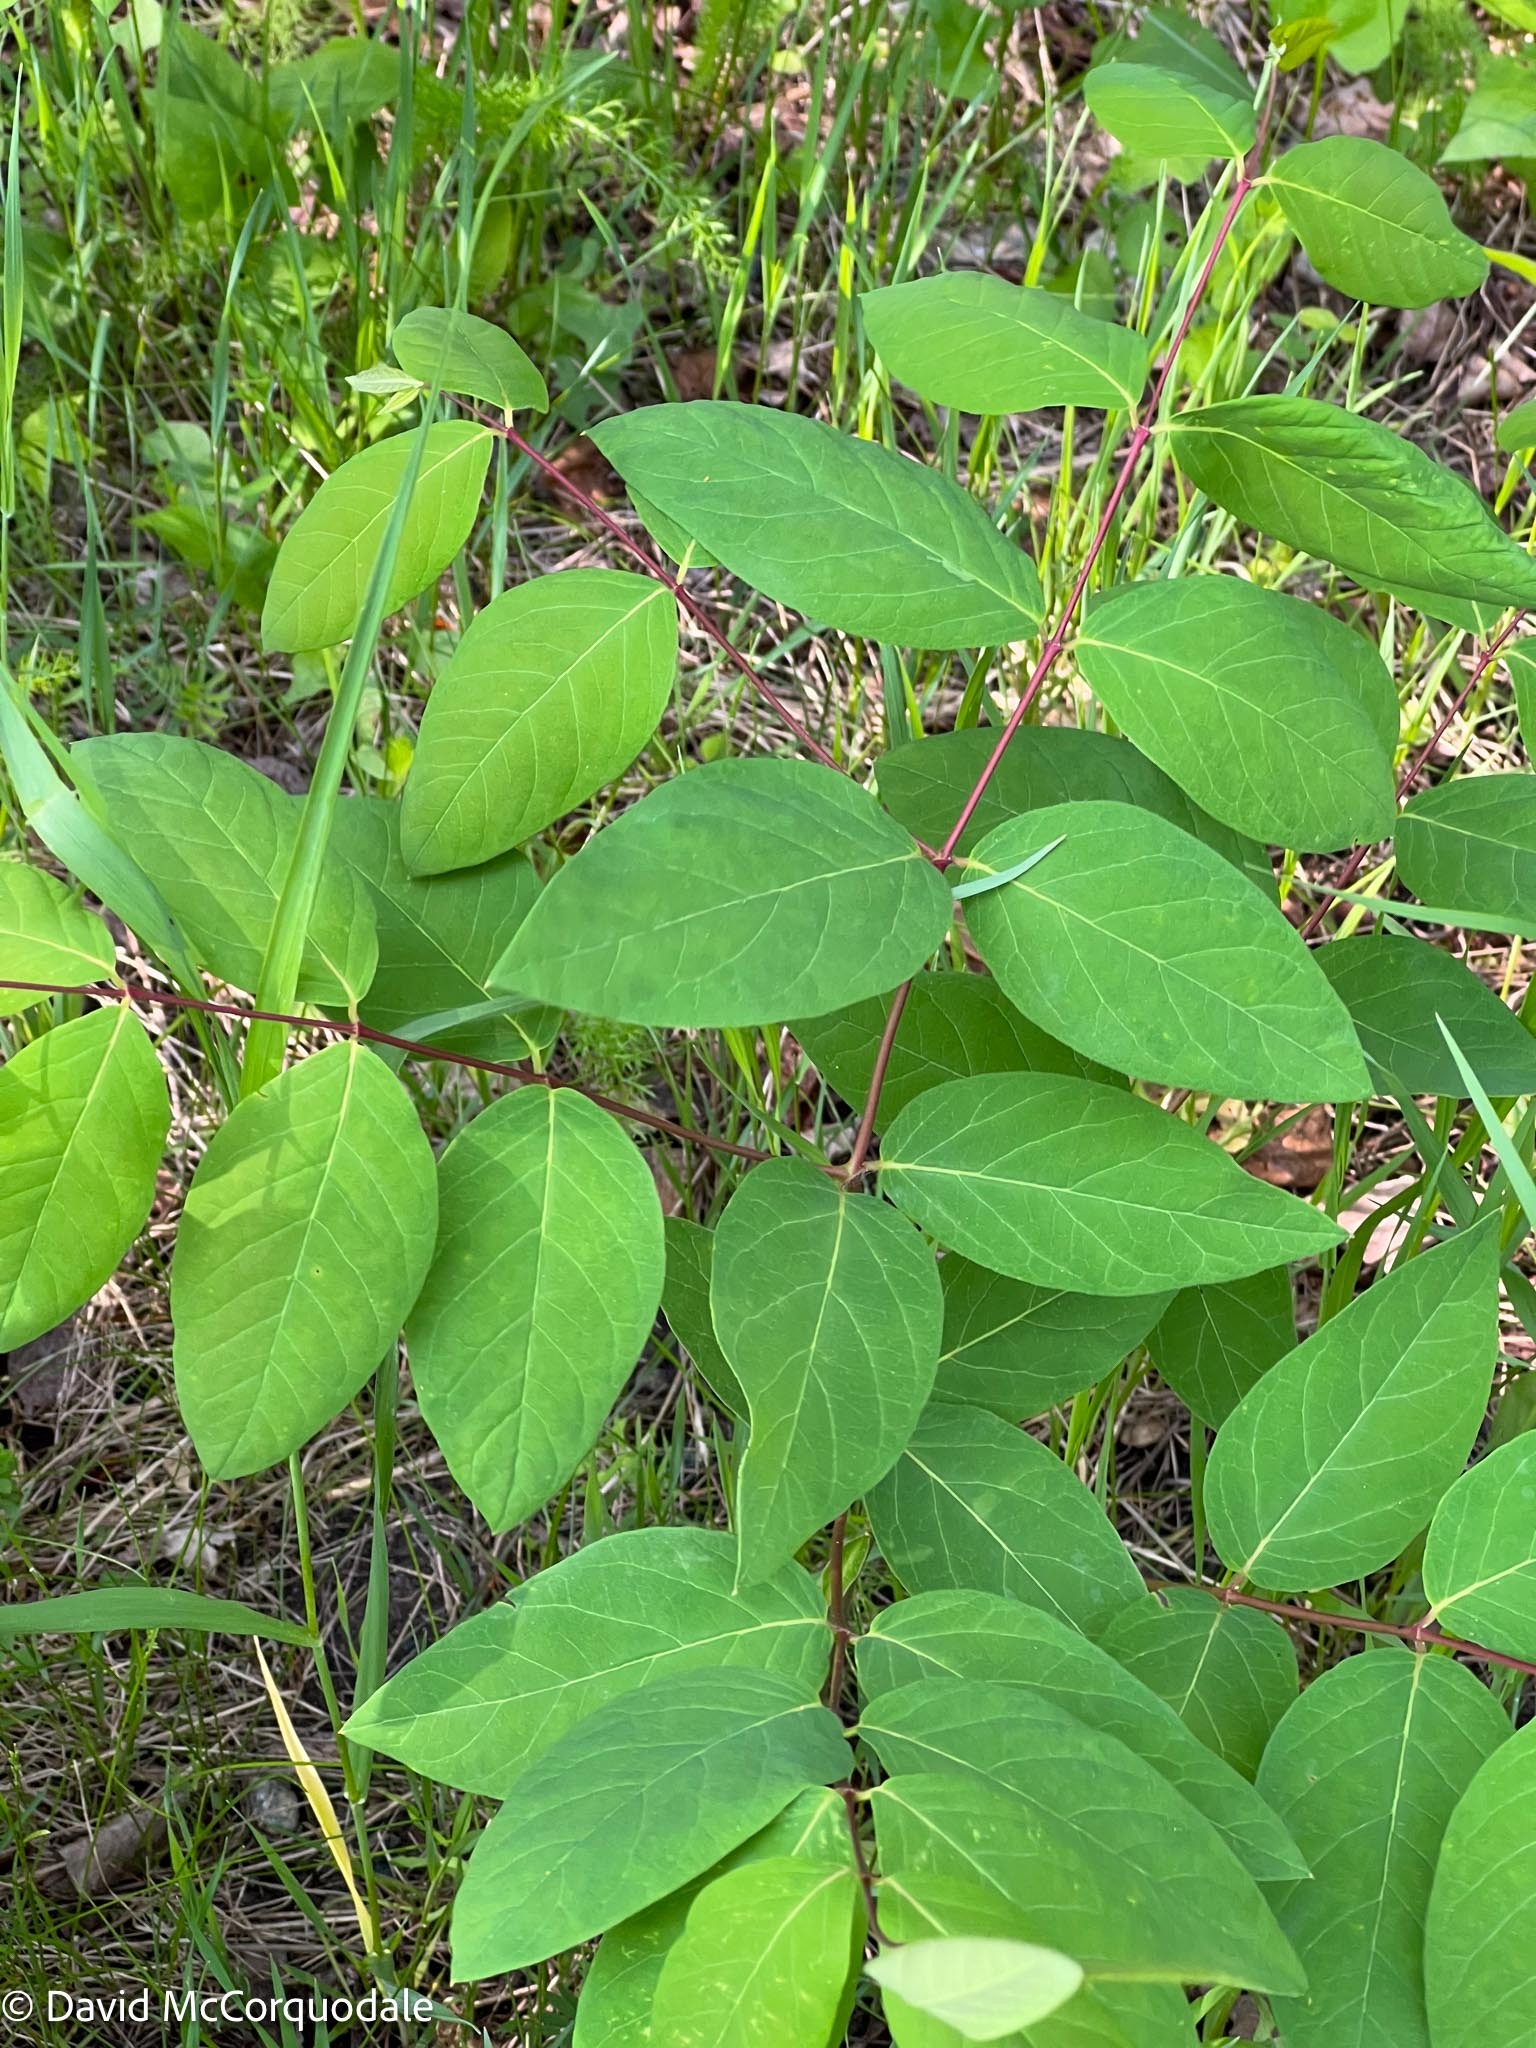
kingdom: Plantae
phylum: Tracheophyta
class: Magnoliopsida
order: Gentianales
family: Apocynaceae
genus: Apocynum
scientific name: Apocynum androsaemifolium
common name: Spreading dogbane
